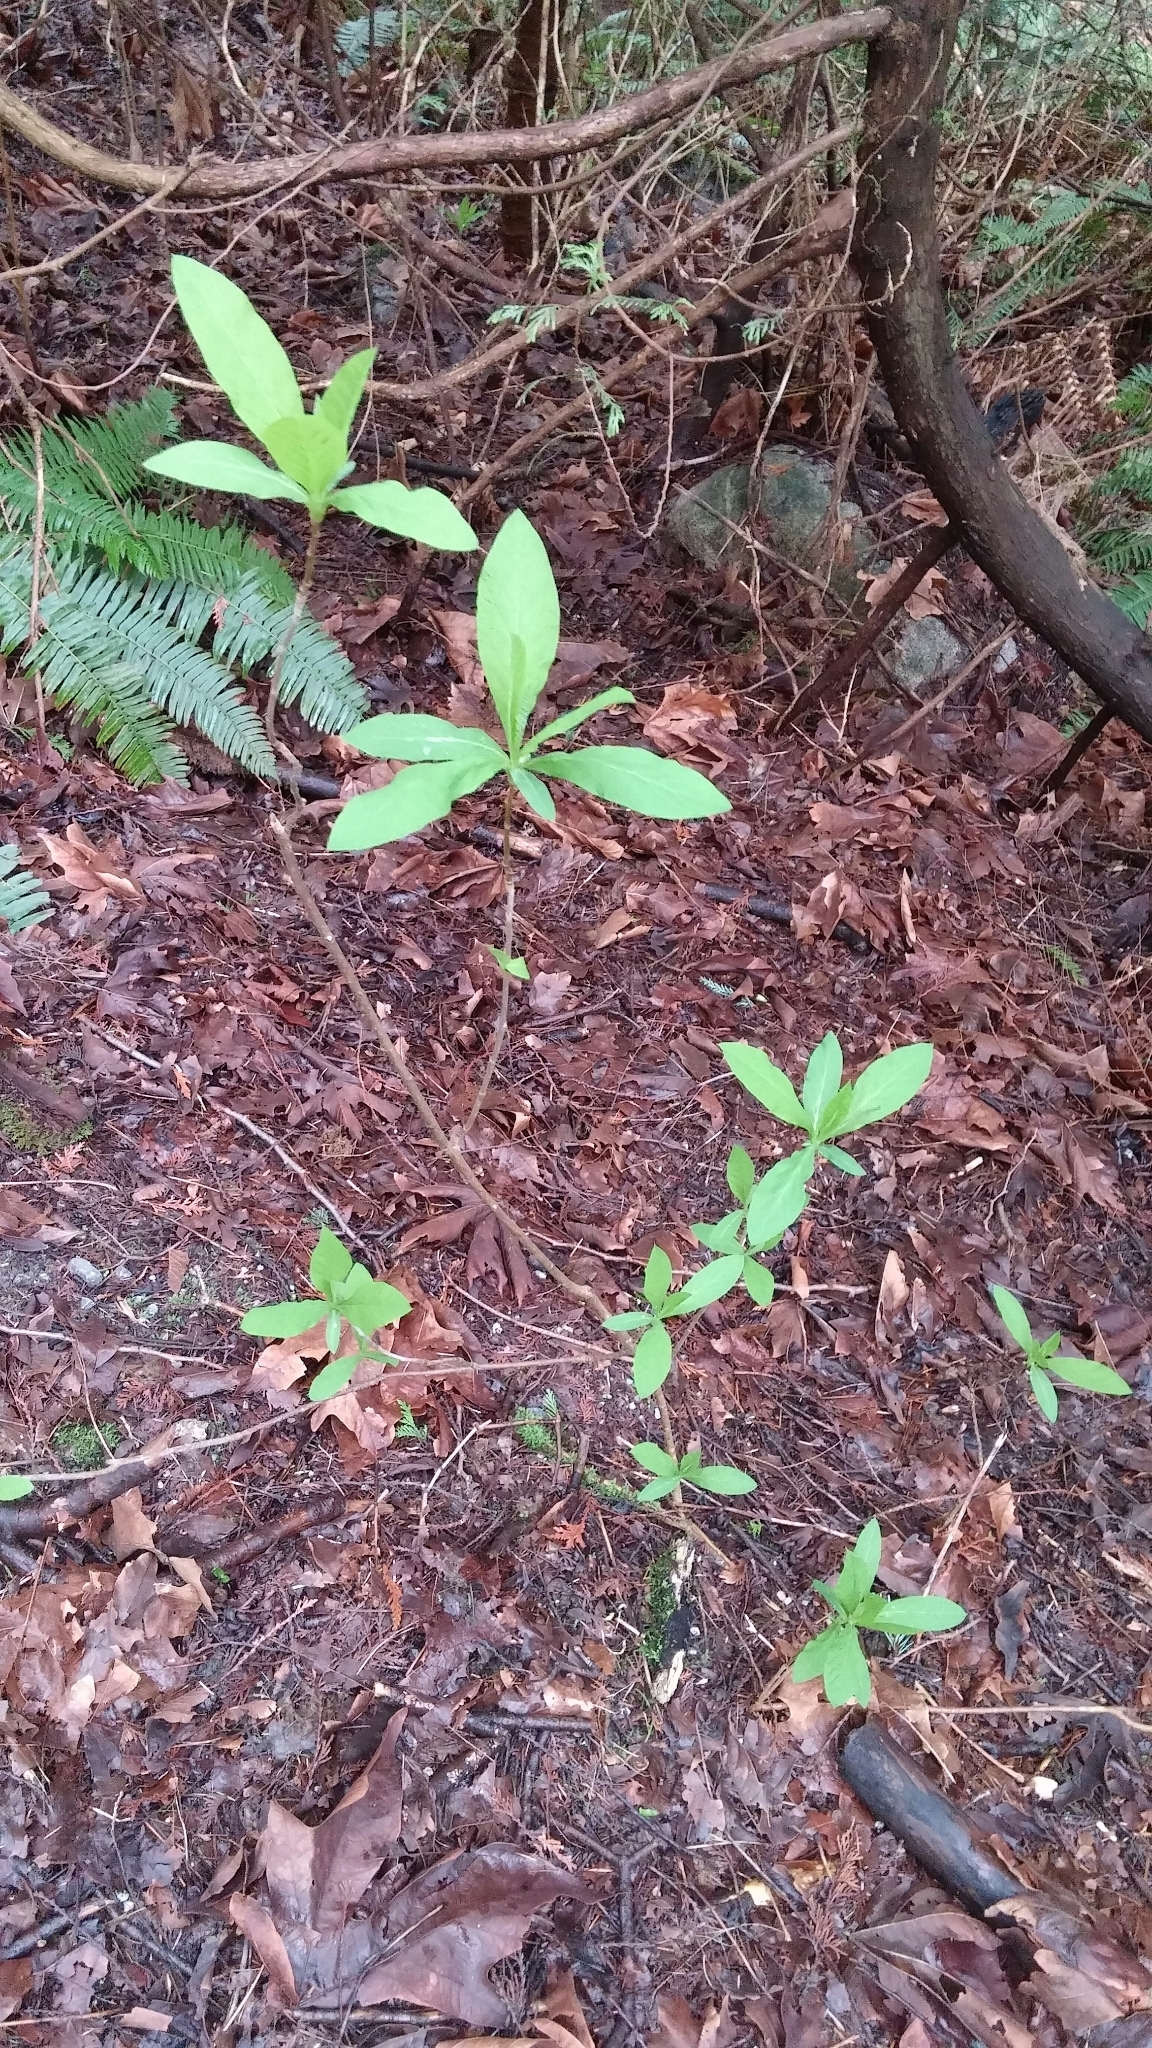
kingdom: Plantae
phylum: Tracheophyta
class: Magnoliopsida
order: Rosales
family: Rosaceae
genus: Oemleria
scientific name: Oemleria cerasiformis
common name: Osoberry
